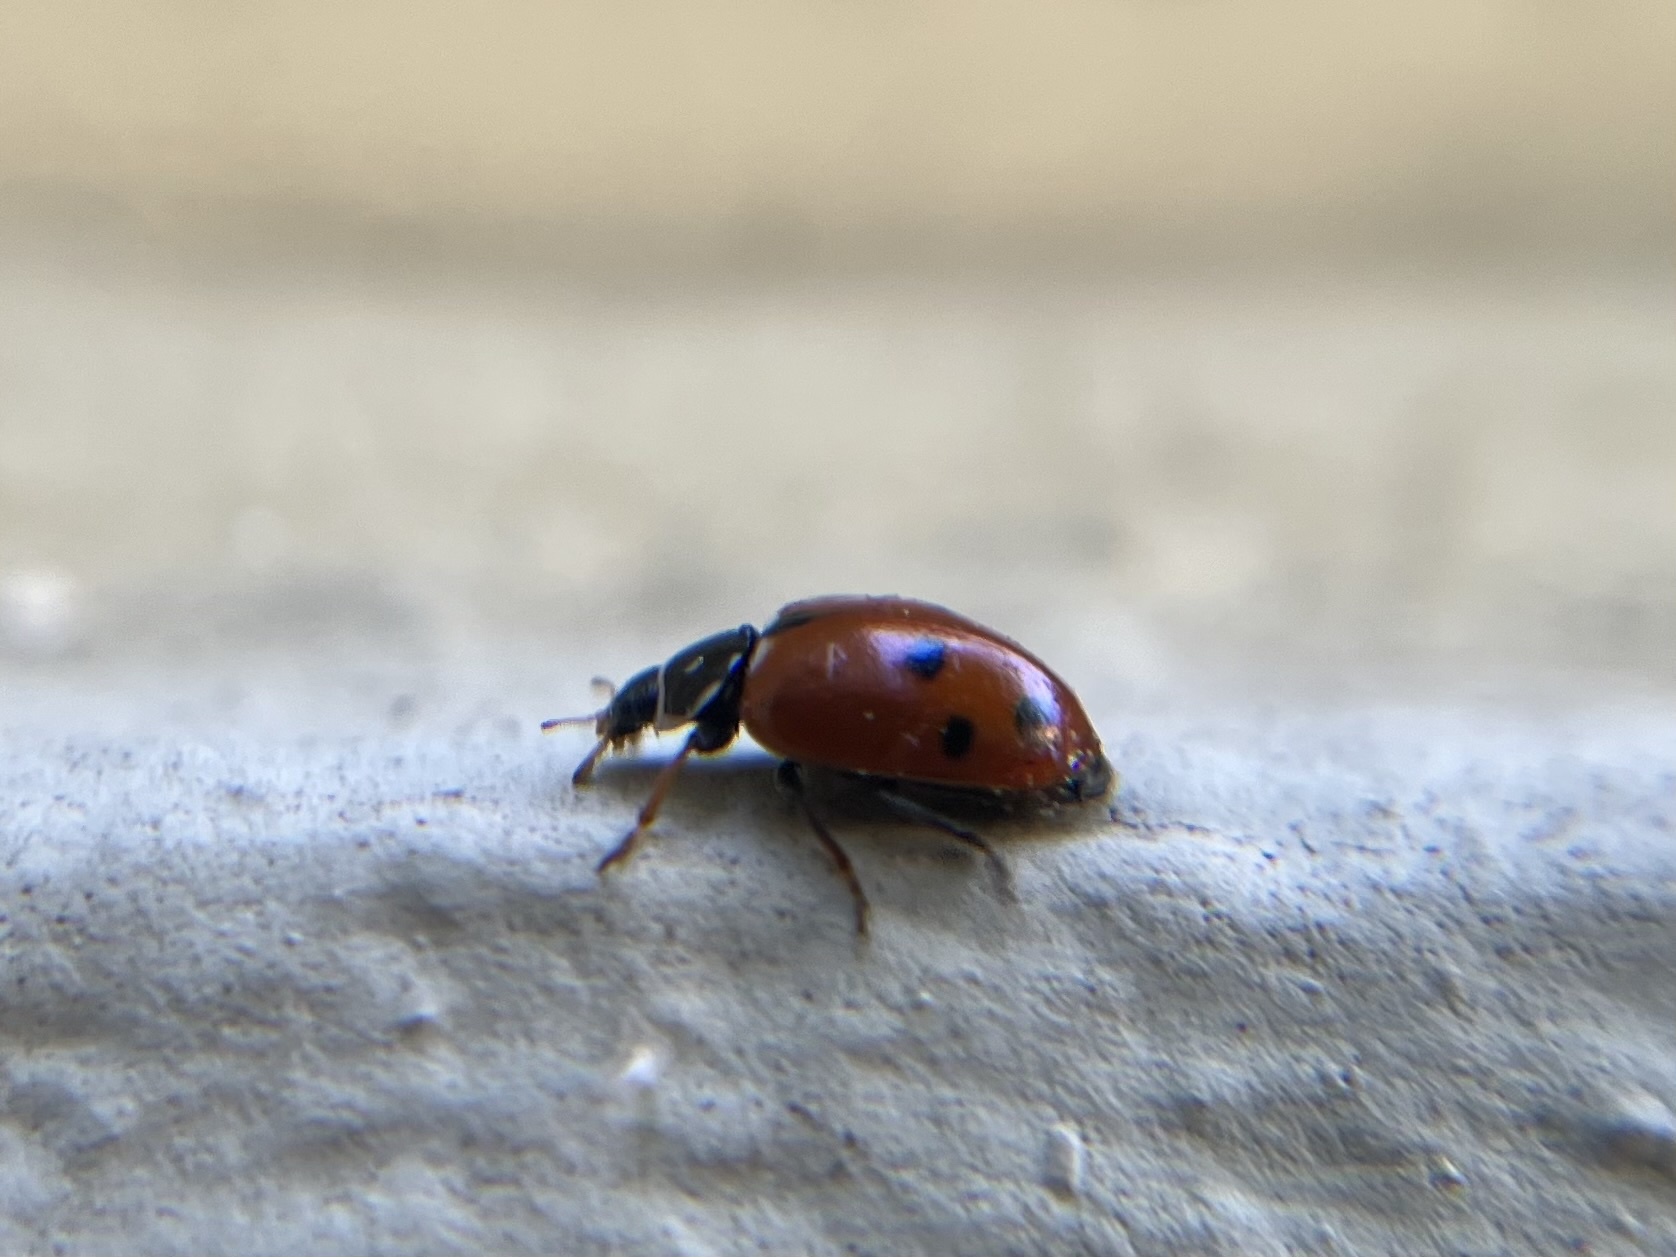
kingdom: Animalia
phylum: Arthropoda
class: Insecta
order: Coleoptera
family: Coccinellidae
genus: Hippodamia
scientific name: Hippodamia variegata
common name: Ladybird beetle
